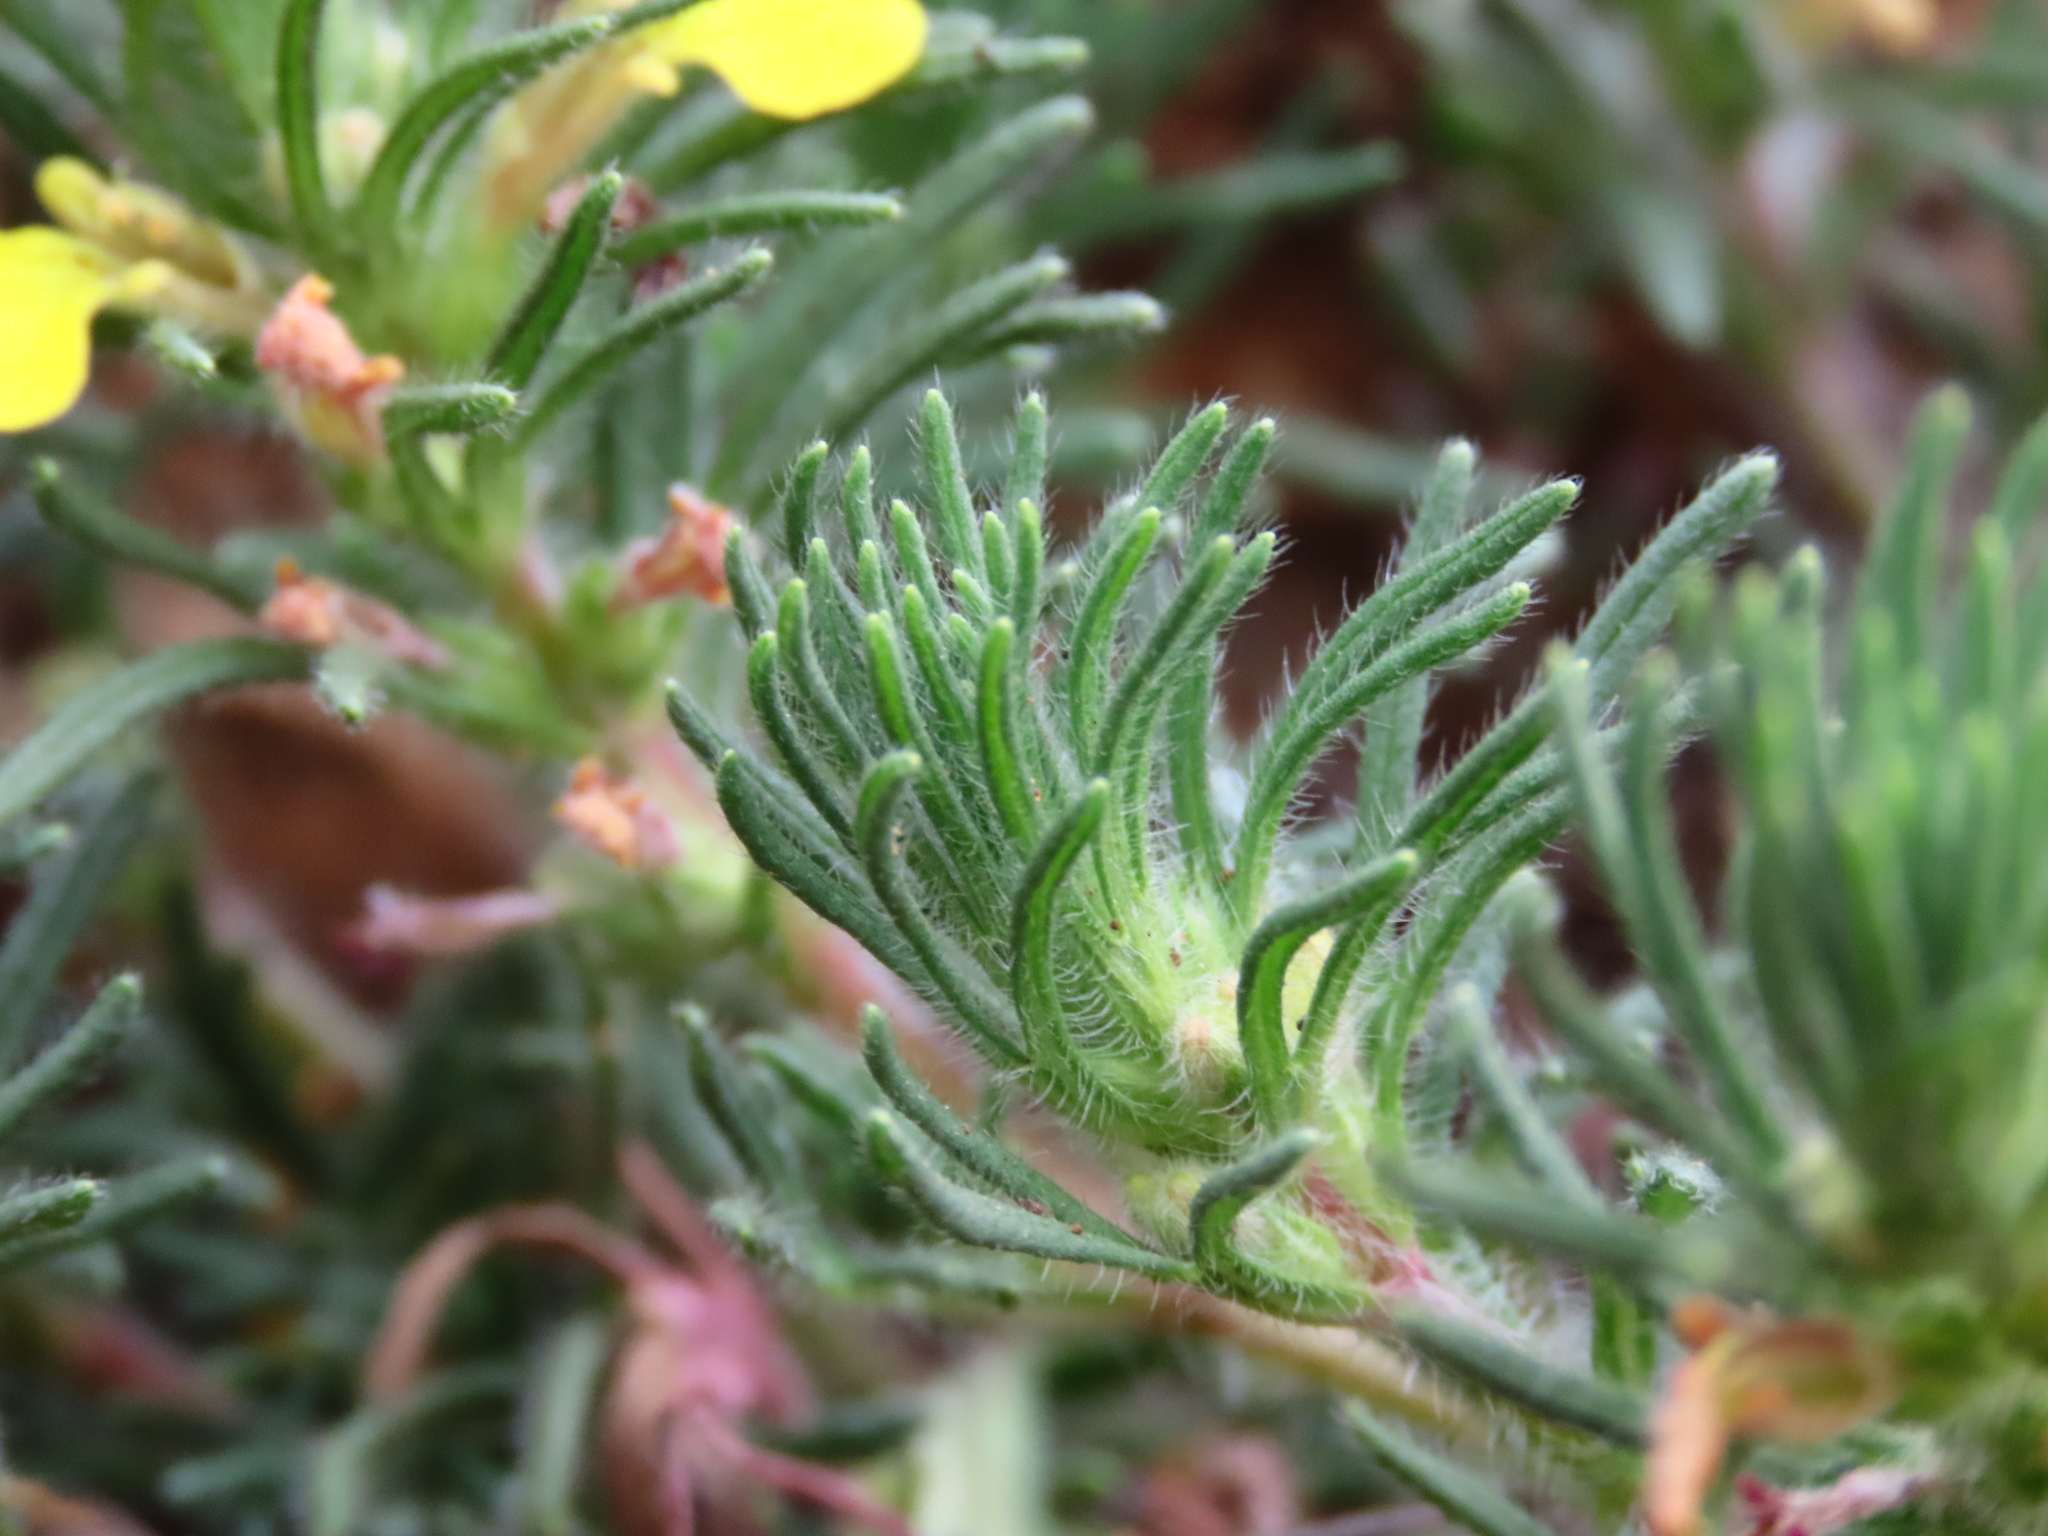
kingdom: Plantae
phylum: Tracheophyta
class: Magnoliopsida
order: Lamiales
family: Lamiaceae
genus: Ajuga
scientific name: Ajuga chamaepitys
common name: Ground-pine
